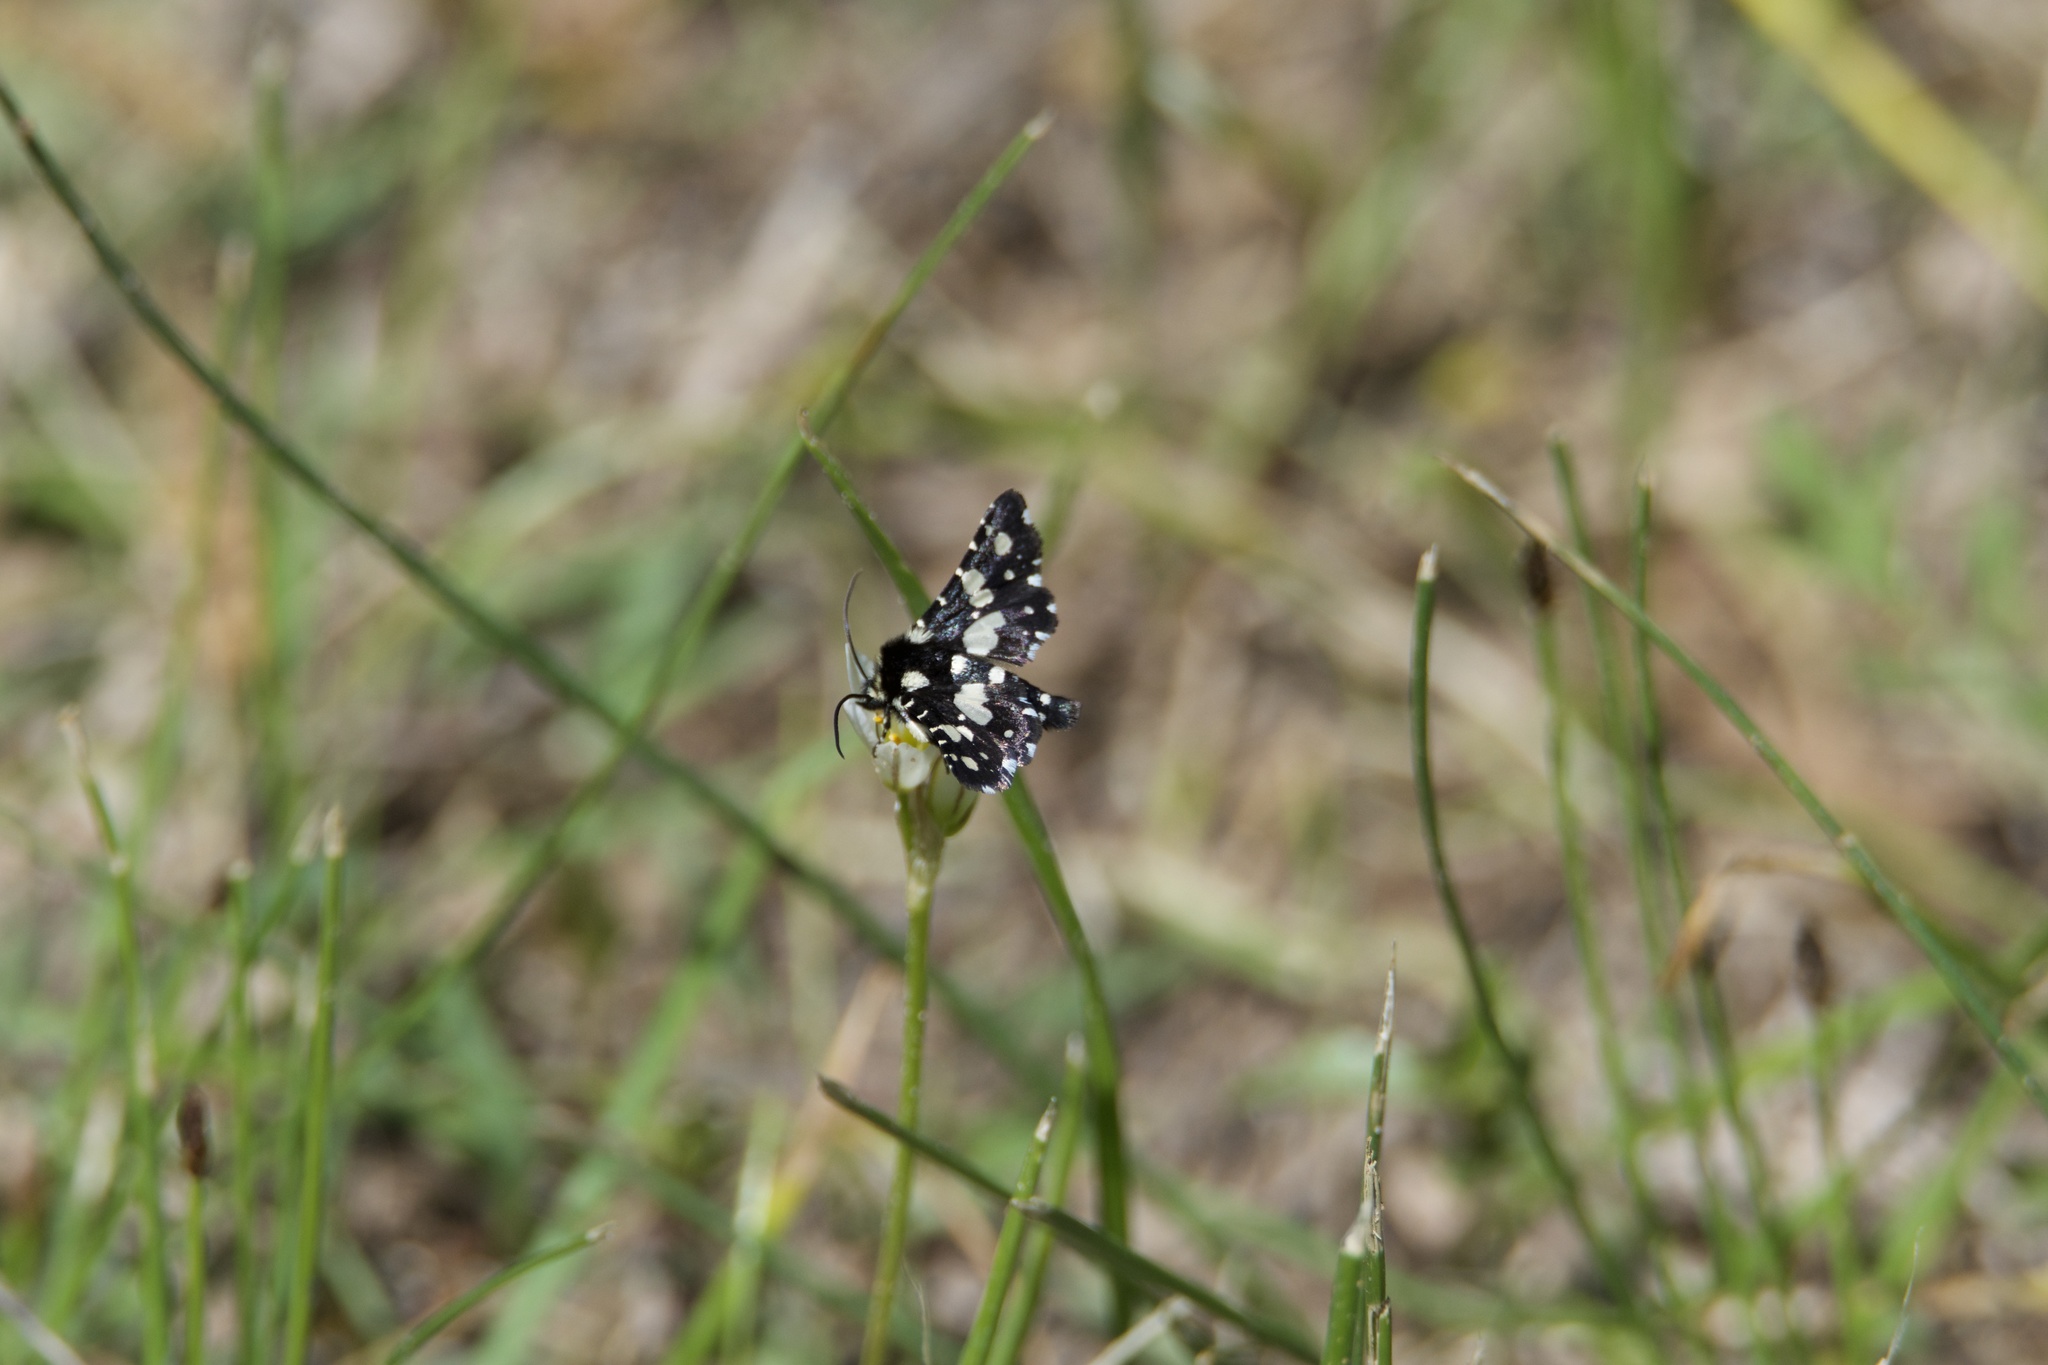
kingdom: Animalia
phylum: Arthropoda
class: Insecta
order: Lepidoptera
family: Thyrididae
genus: Pseudothyris
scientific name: Pseudothyris sepulchralis
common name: Mournful thyris moth
